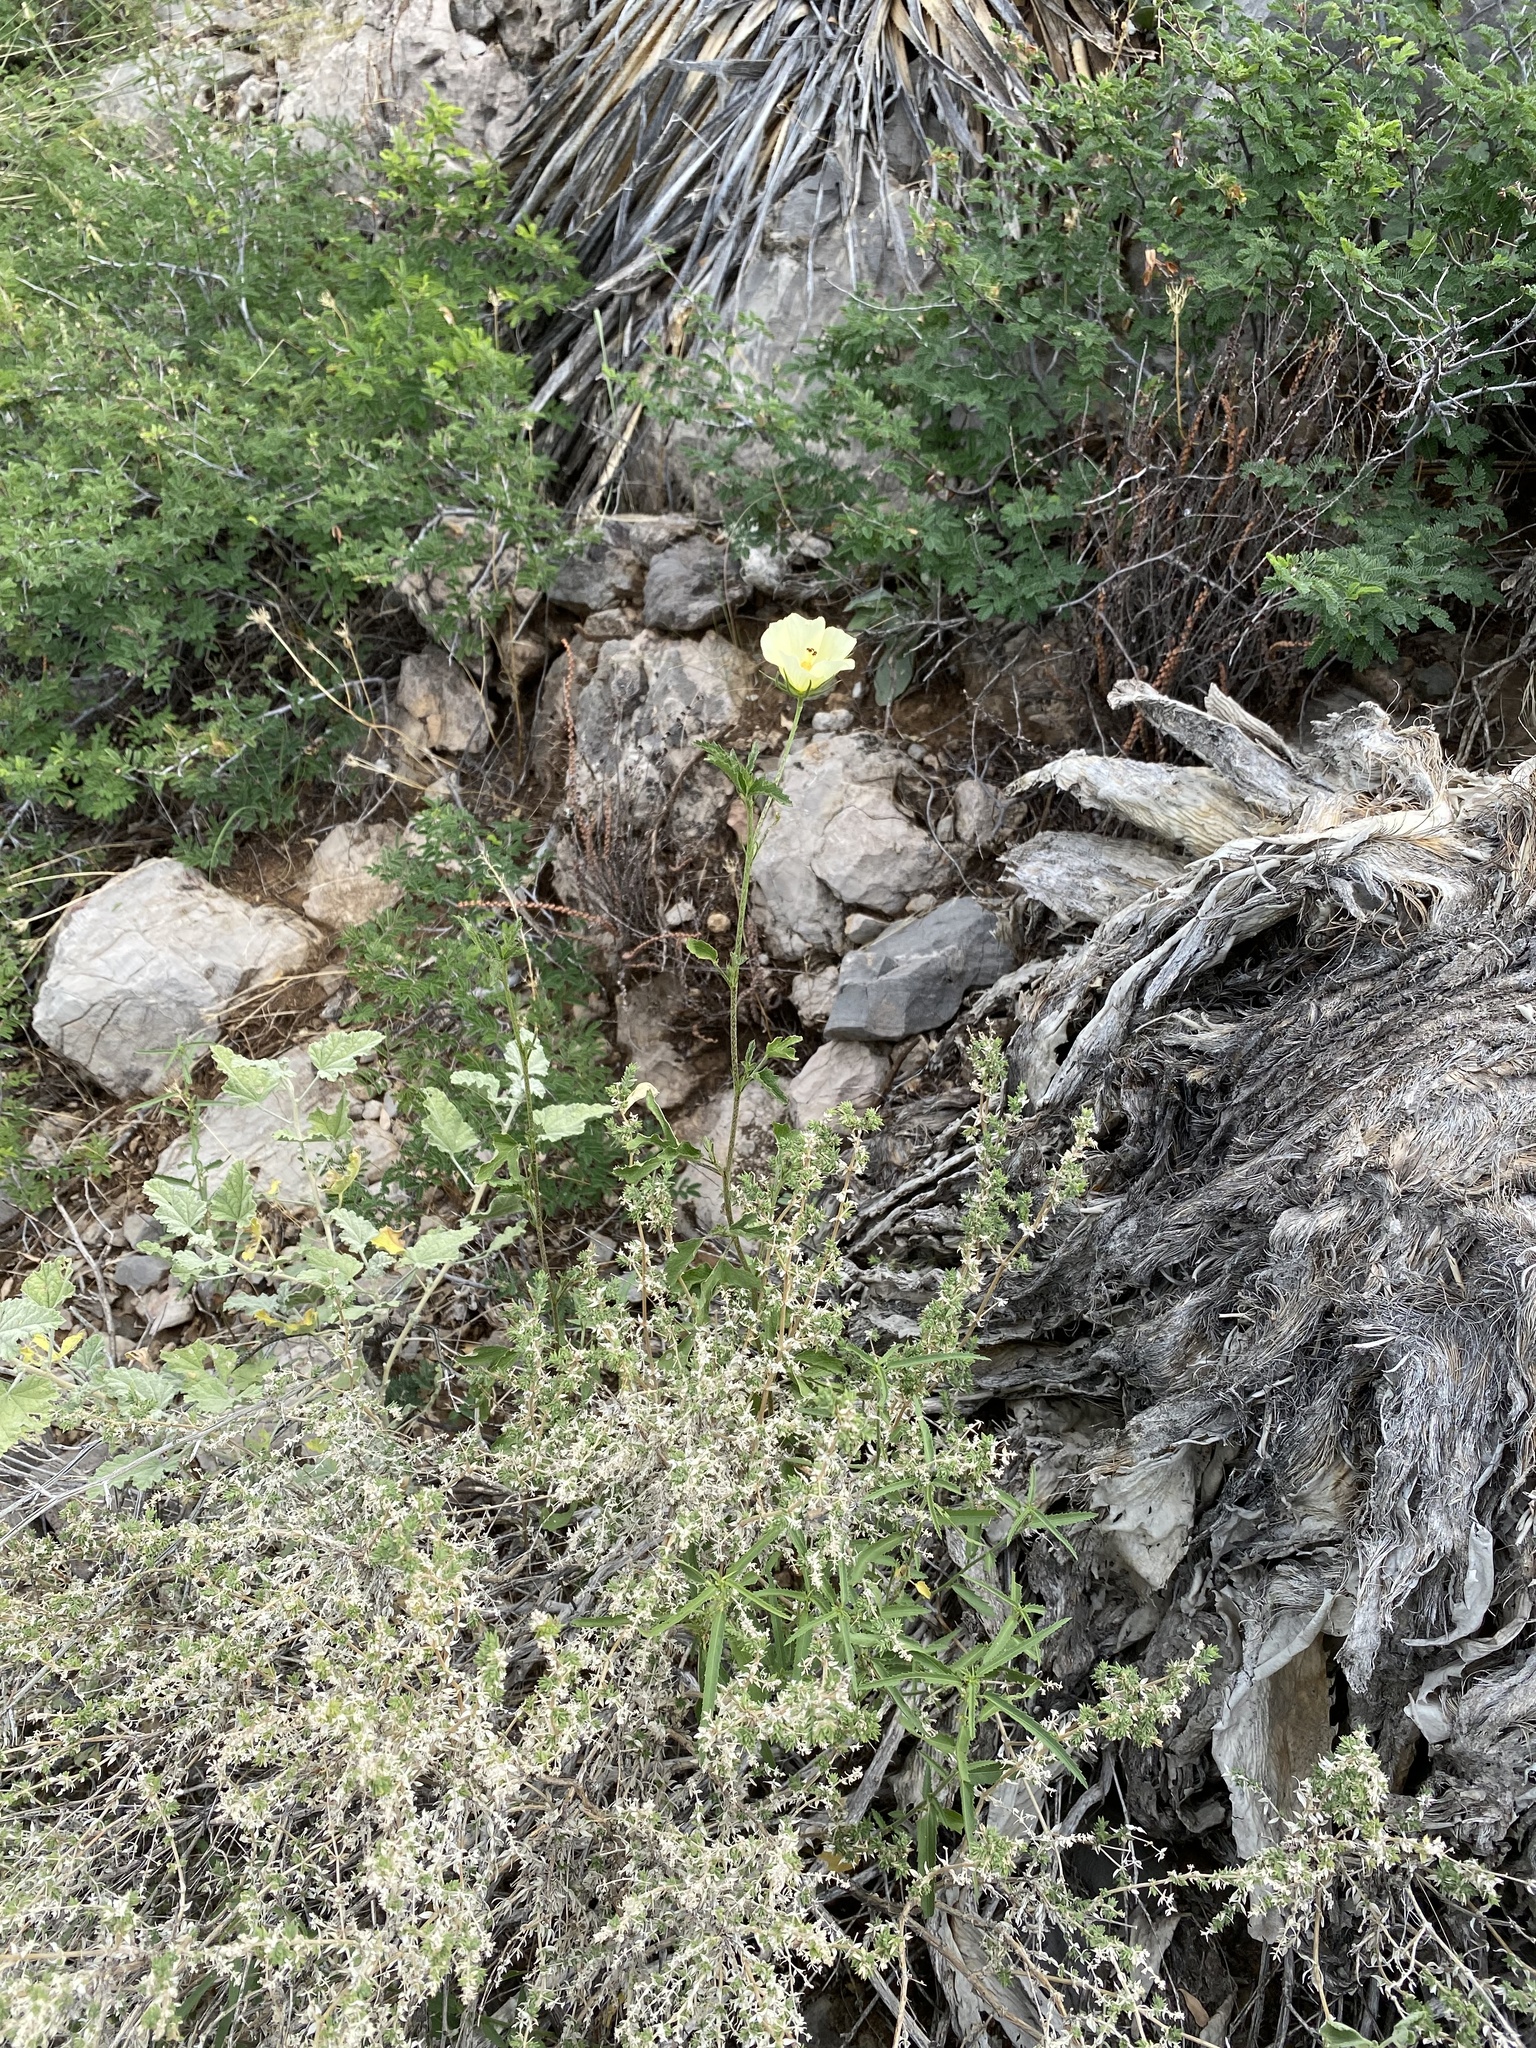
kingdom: Plantae
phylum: Tracheophyta
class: Magnoliopsida
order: Malvales
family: Malvaceae
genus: Hibiscus
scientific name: Hibiscus coulteri
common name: Desert rose-mallow
